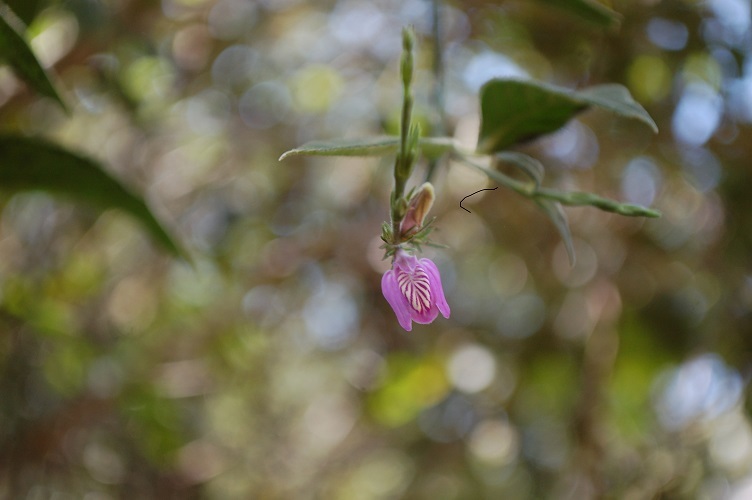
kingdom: Plantae
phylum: Tracheophyta
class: Magnoliopsida
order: Lamiales
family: Acanthaceae
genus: Justicia
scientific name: Justicia comata
